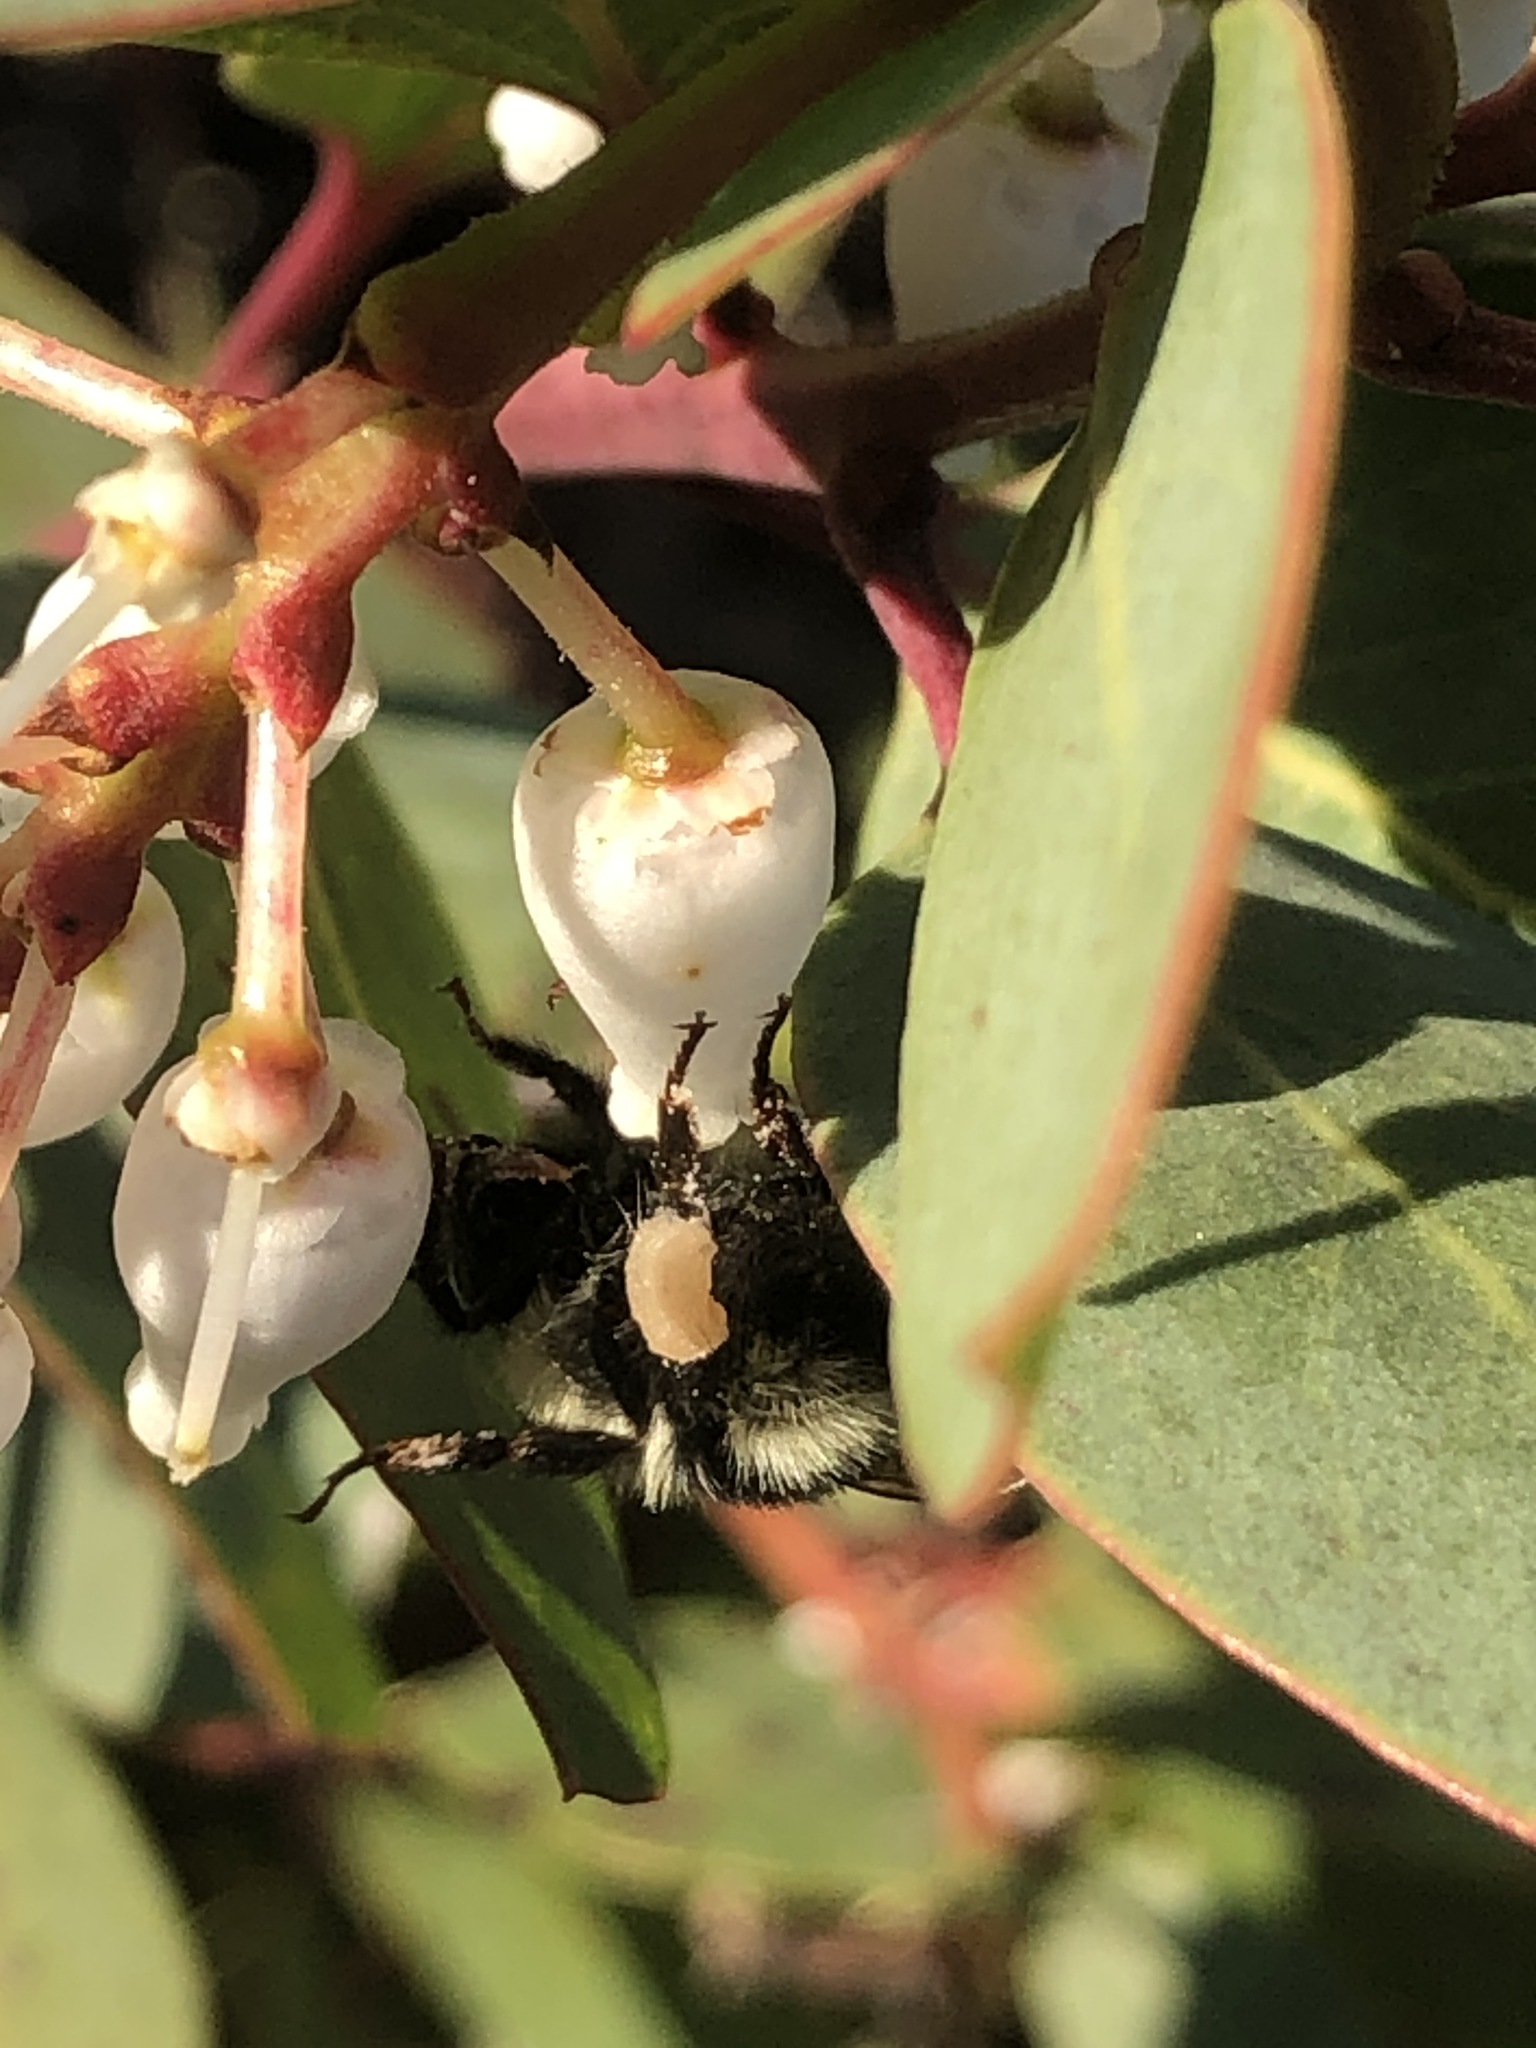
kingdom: Animalia
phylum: Arthropoda
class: Insecta
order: Hymenoptera
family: Apidae
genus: Bombus
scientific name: Bombus melanopygus
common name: Black tail bumble bee
